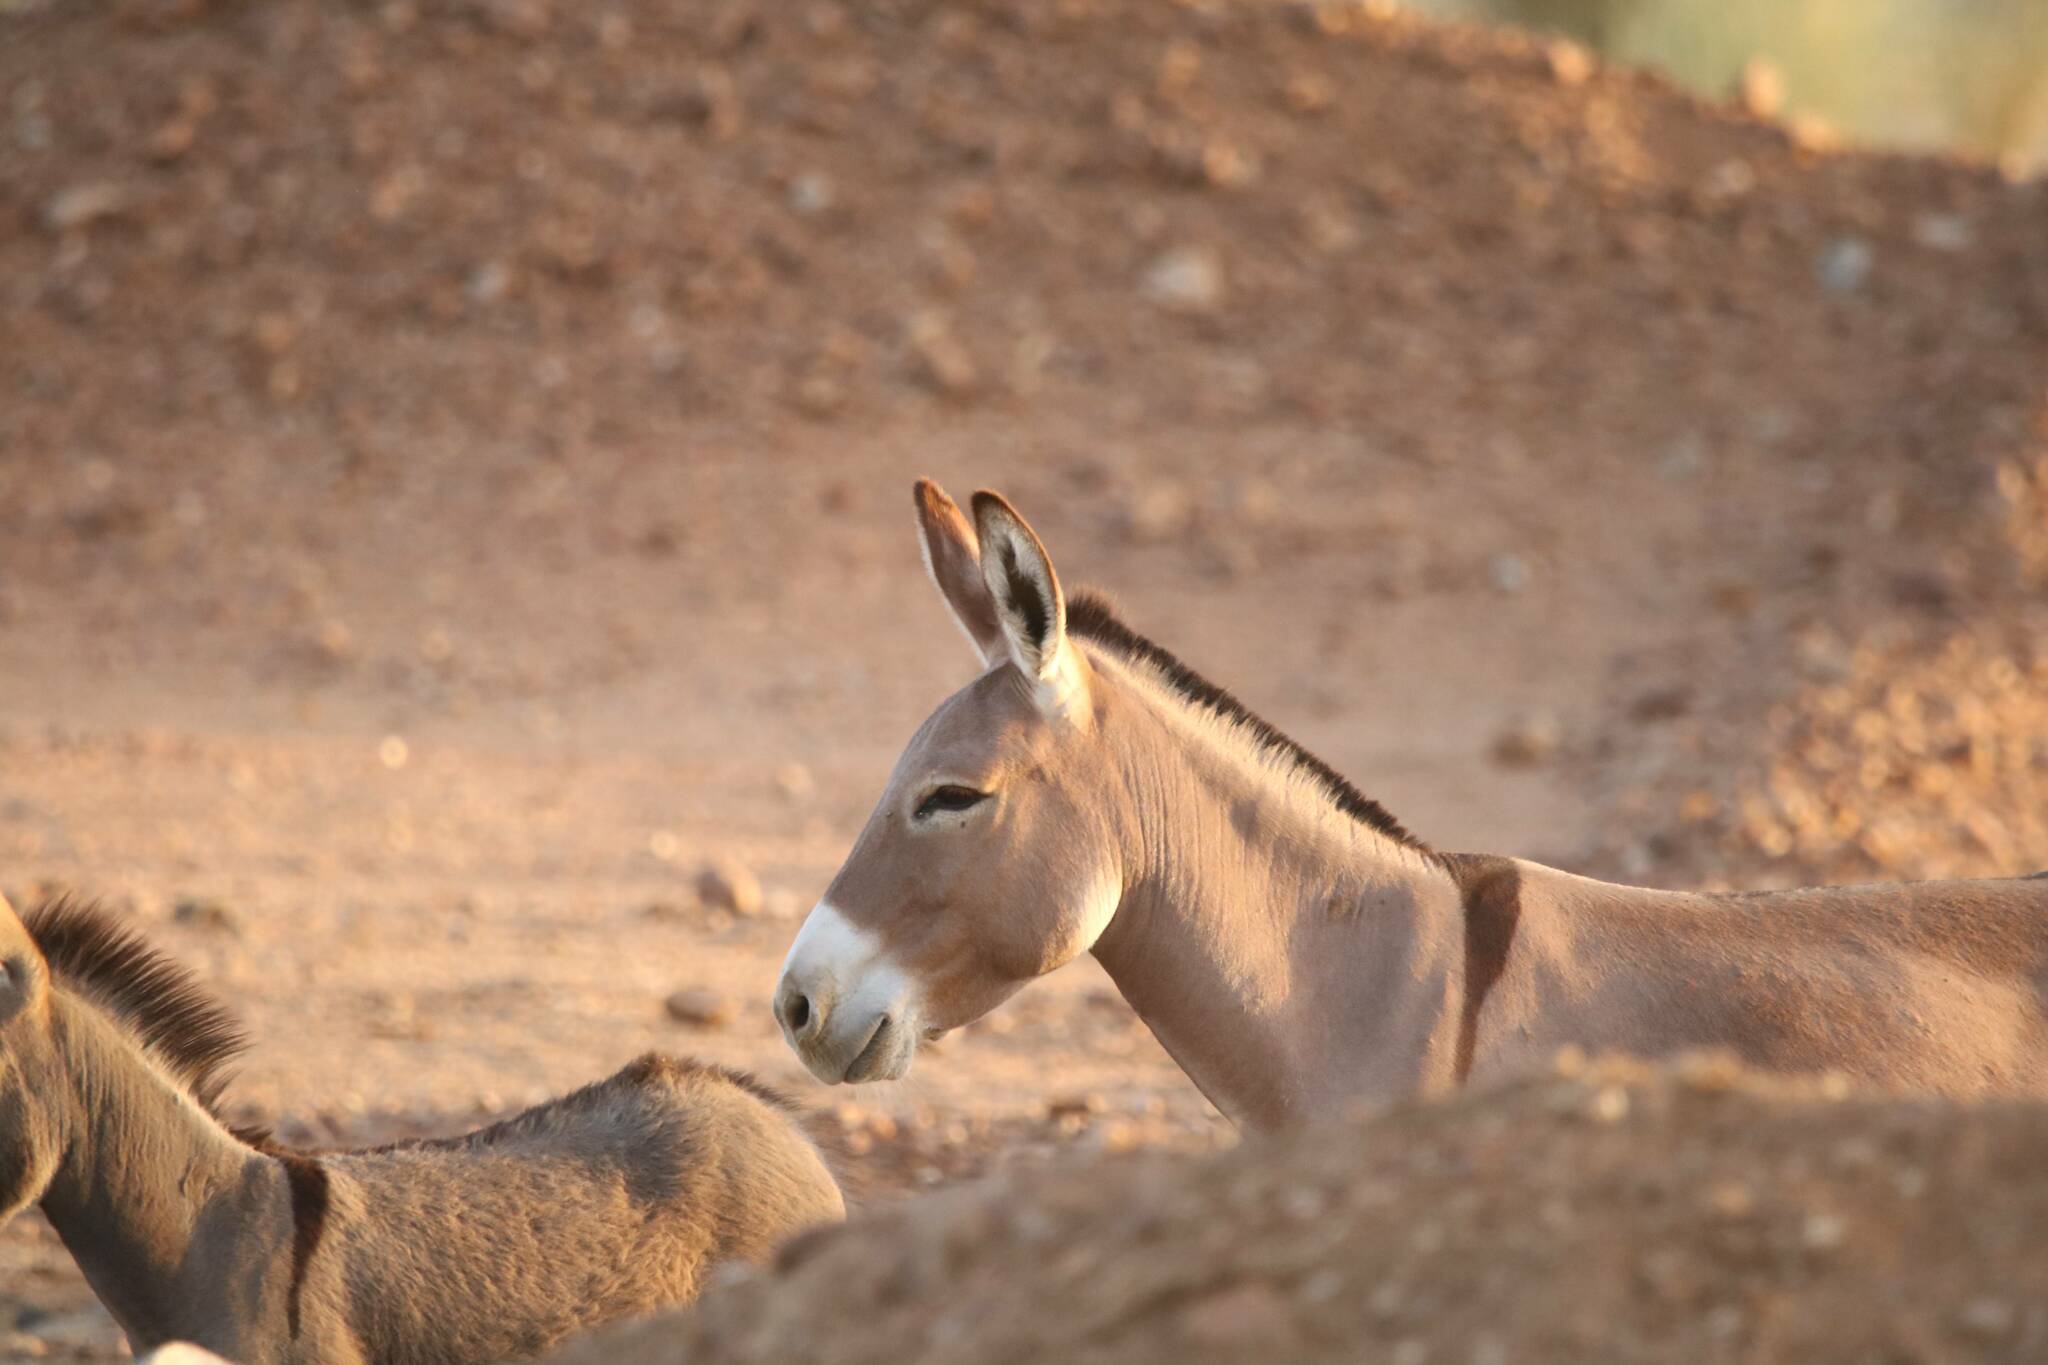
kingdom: Animalia
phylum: Chordata
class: Mammalia
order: Perissodactyla
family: Equidae
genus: Equus
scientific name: Equus asinus
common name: Ass
